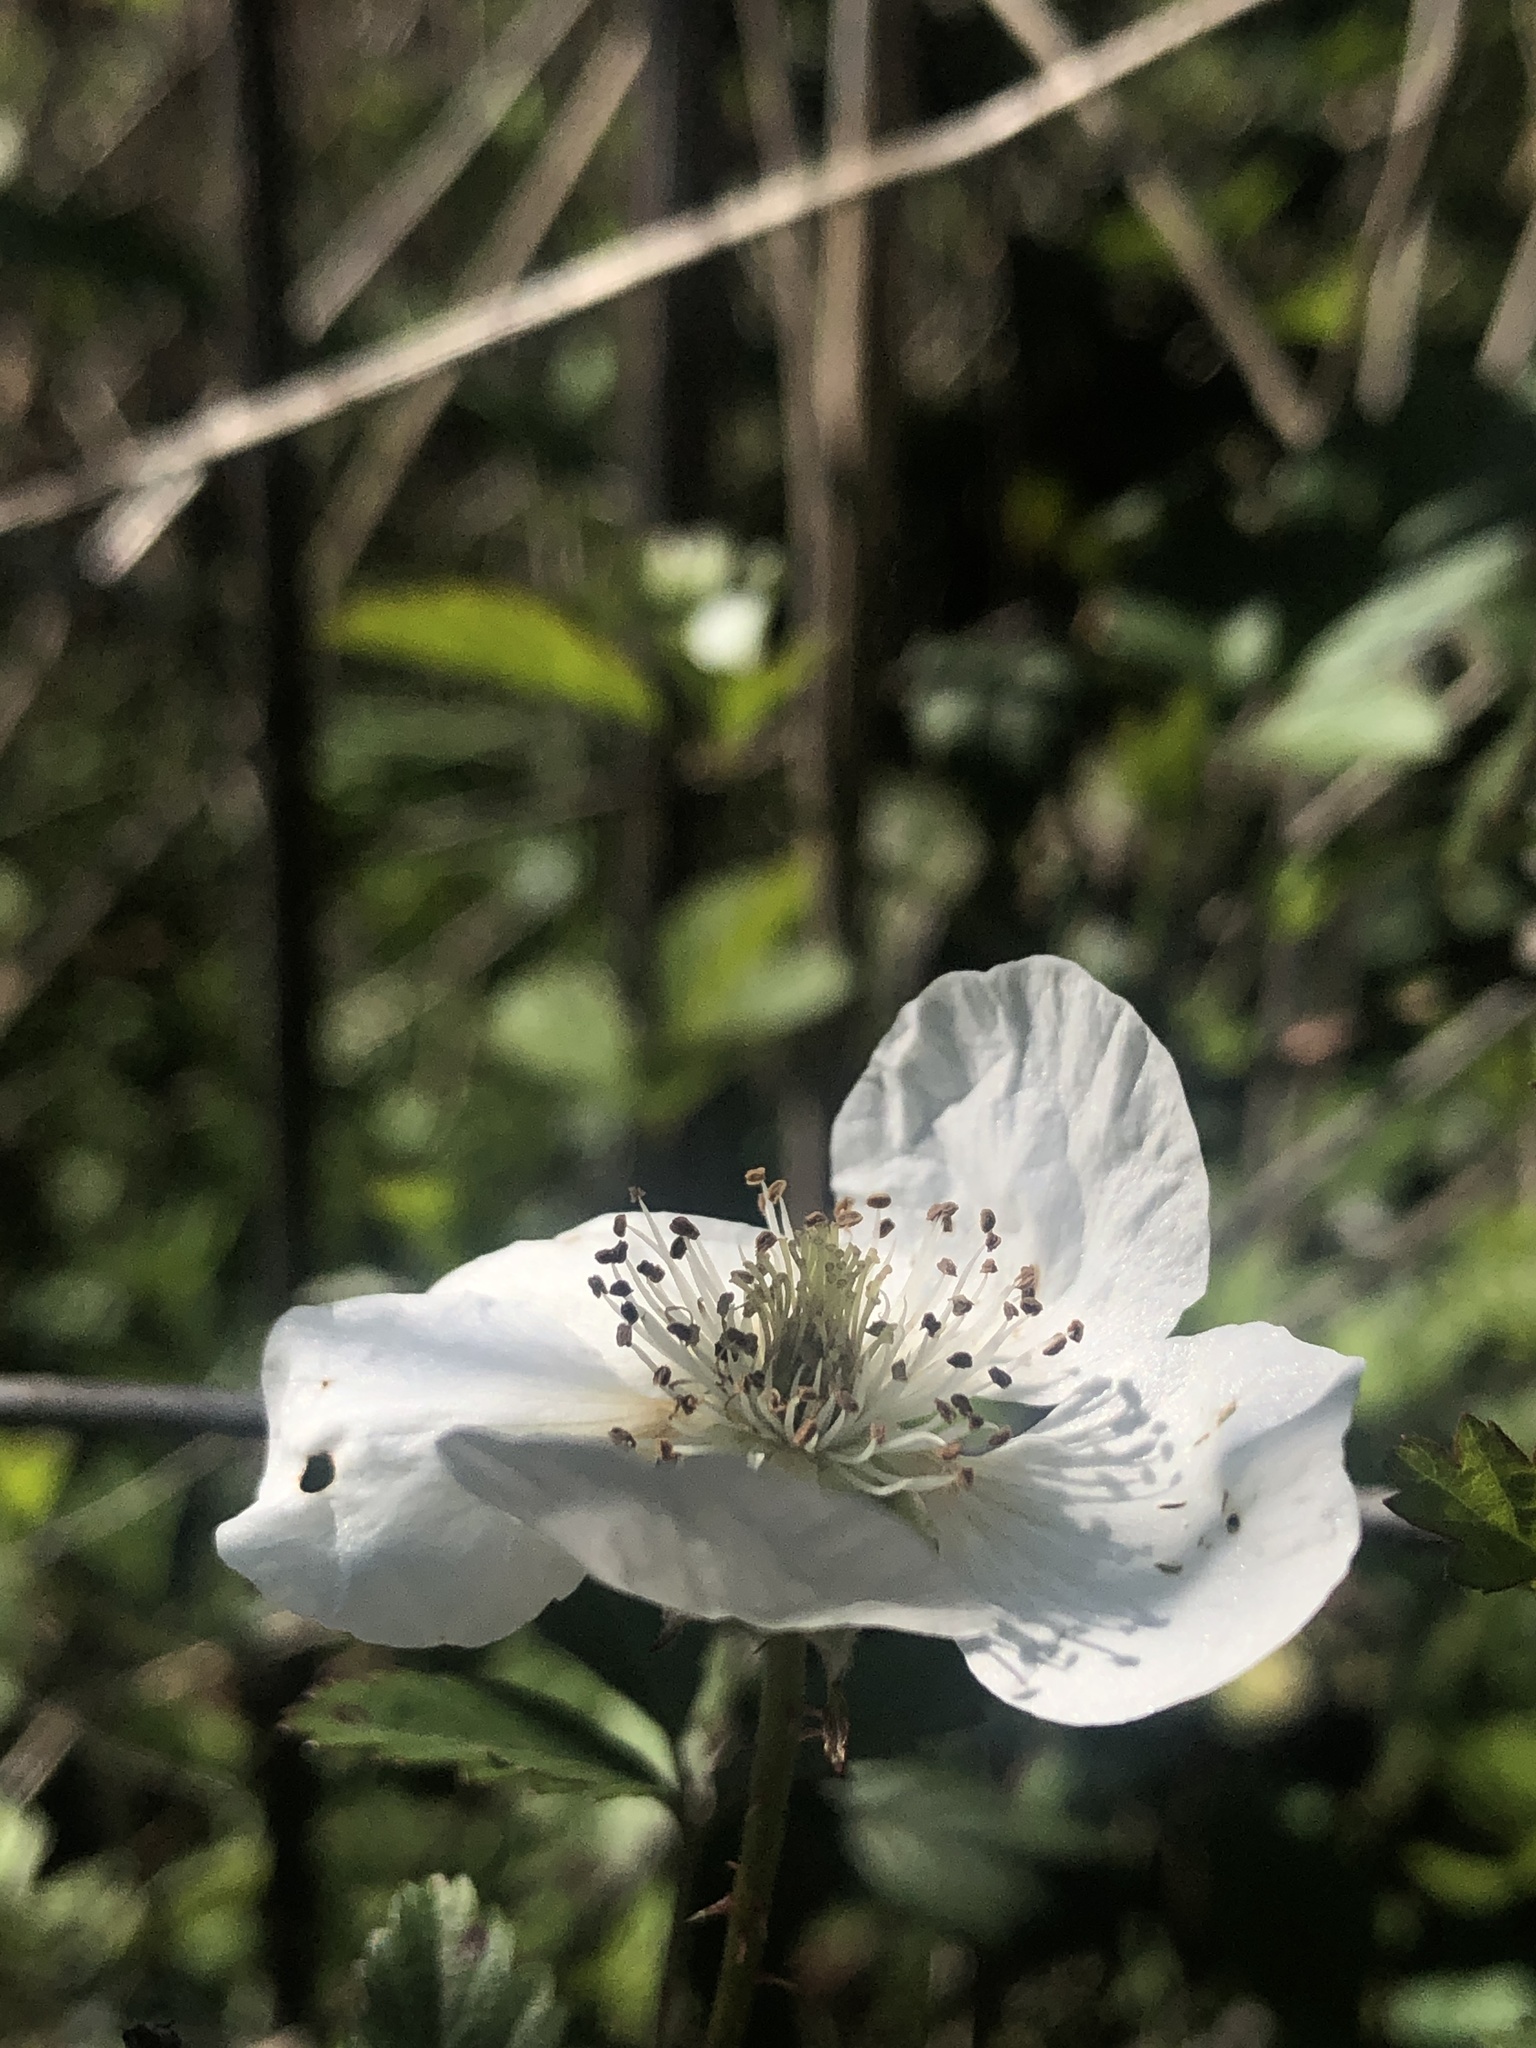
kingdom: Plantae
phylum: Tracheophyta
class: Magnoliopsida
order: Rosales
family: Rosaceae
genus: Rubus
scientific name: Rubus trivialis
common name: Southern dewberry
